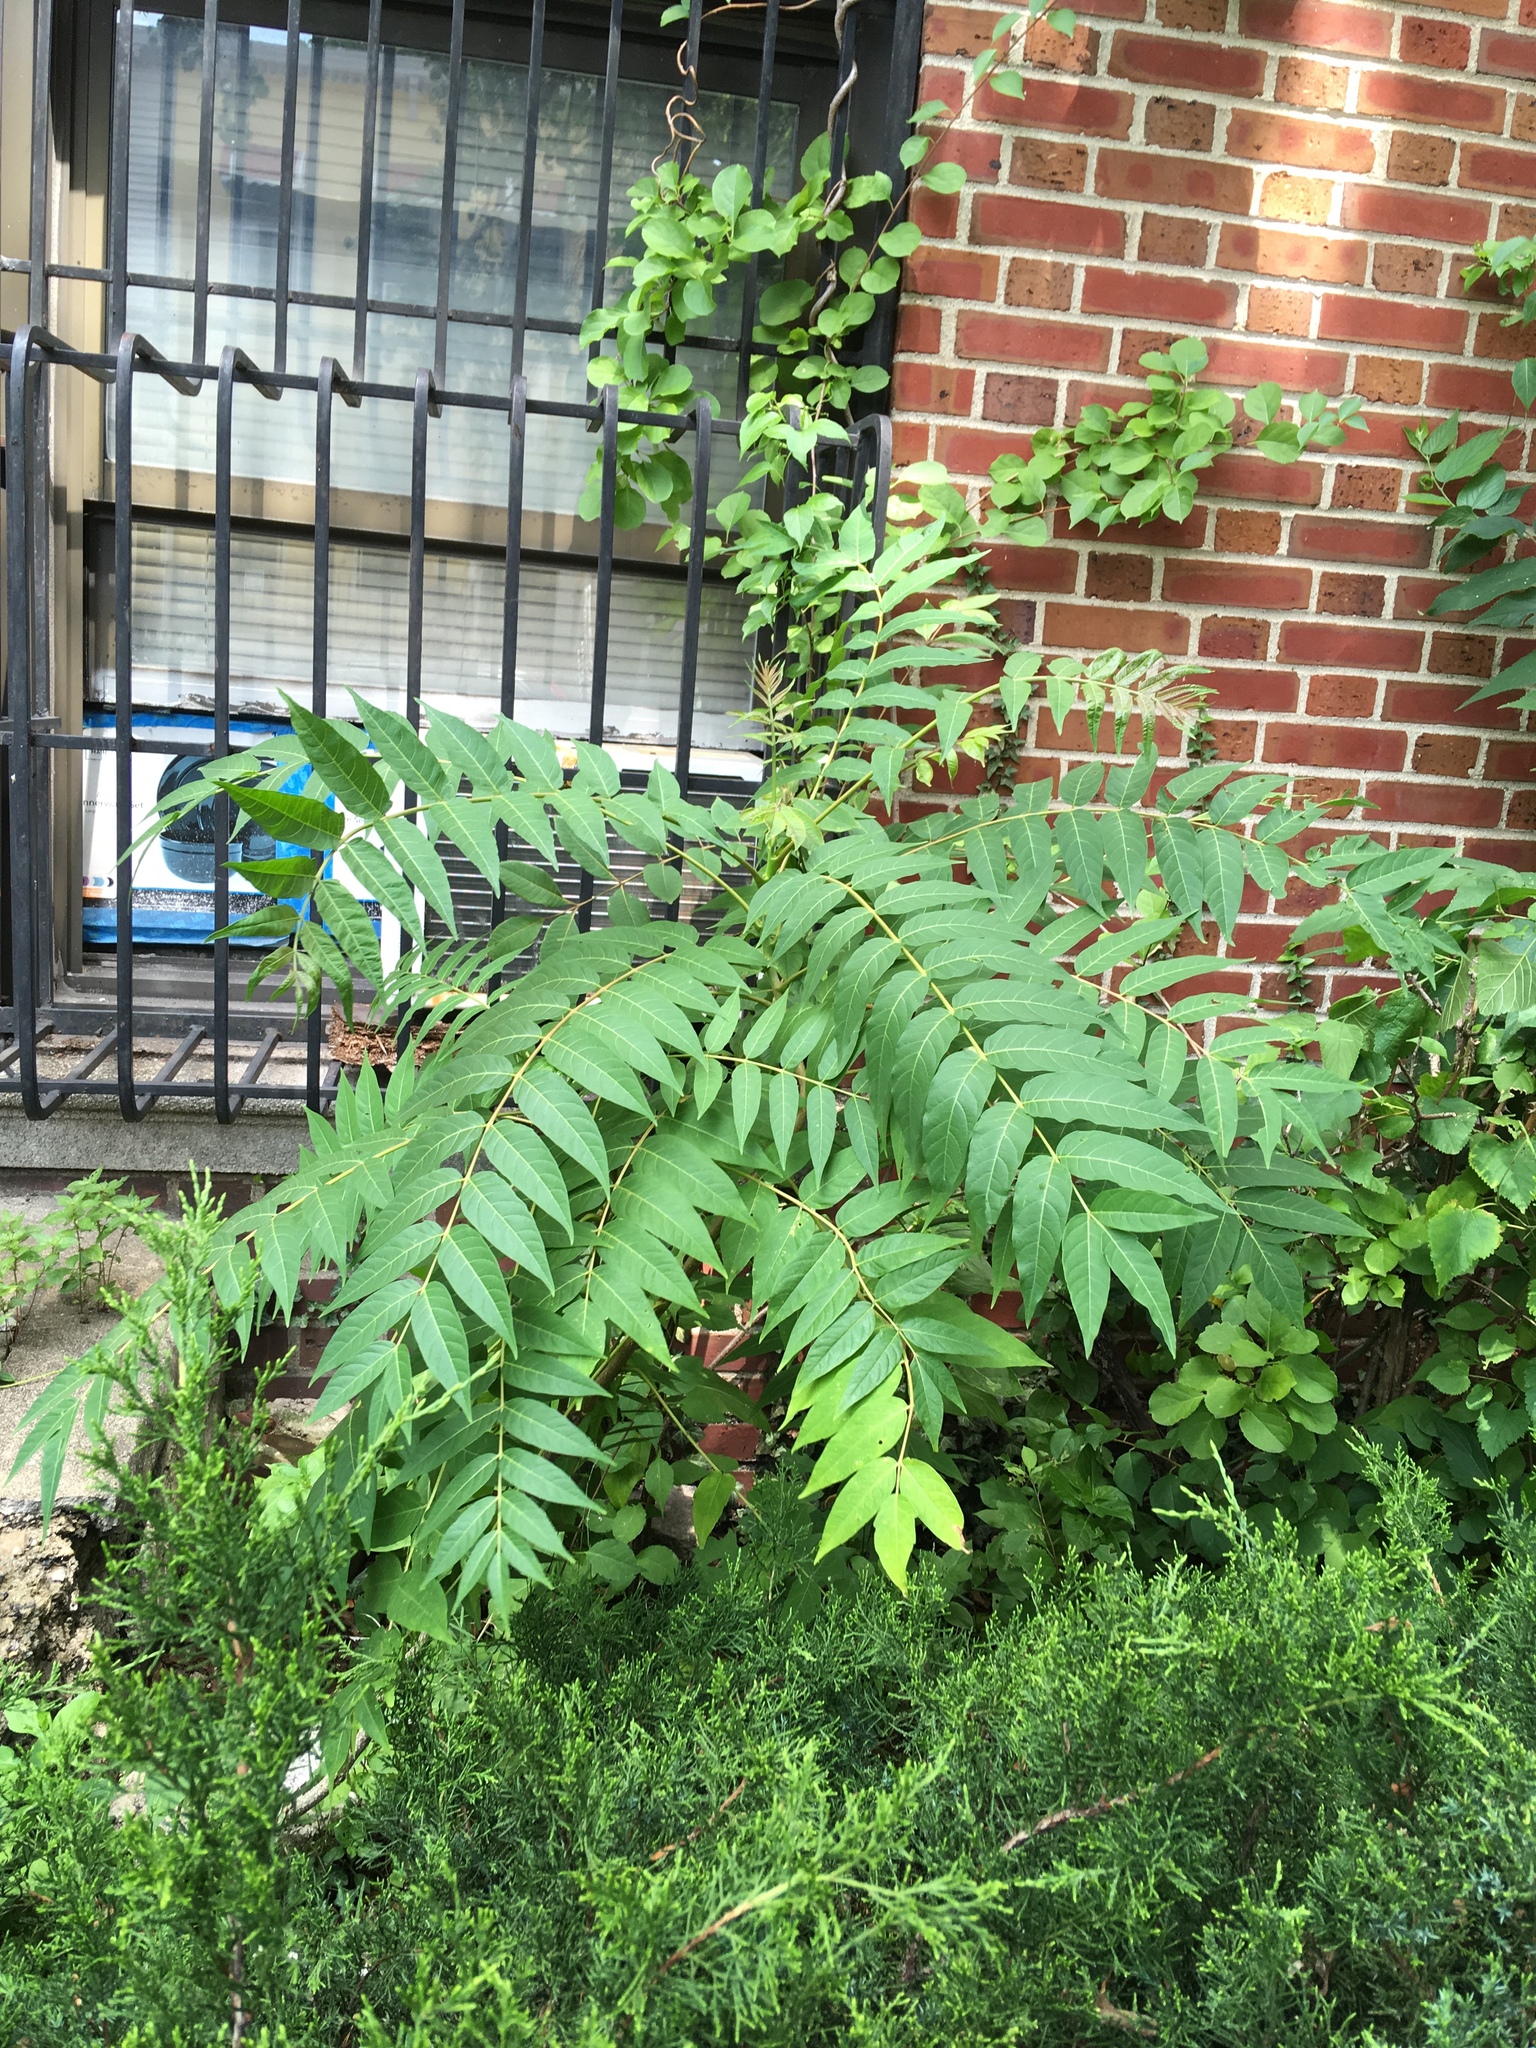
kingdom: Plantae
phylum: Tracheophyta
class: Magnoliopsida
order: Sapindales
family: Simaroubaceae
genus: Ailanthus
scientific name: Ailanthus altissima
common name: Tree-of-heaven
